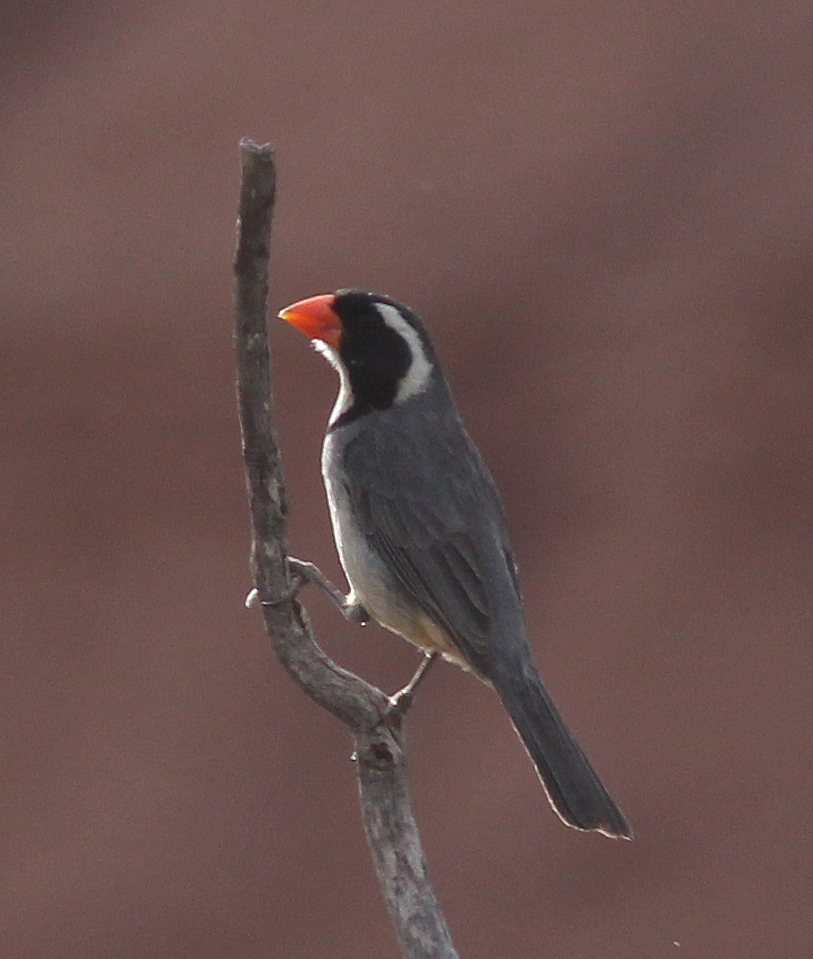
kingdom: Animalia
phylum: Chordata
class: Aves
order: Passeriformes
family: Thraupidae
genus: Saltator
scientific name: Saltator aurantiirostris
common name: Golden-billed saltator
